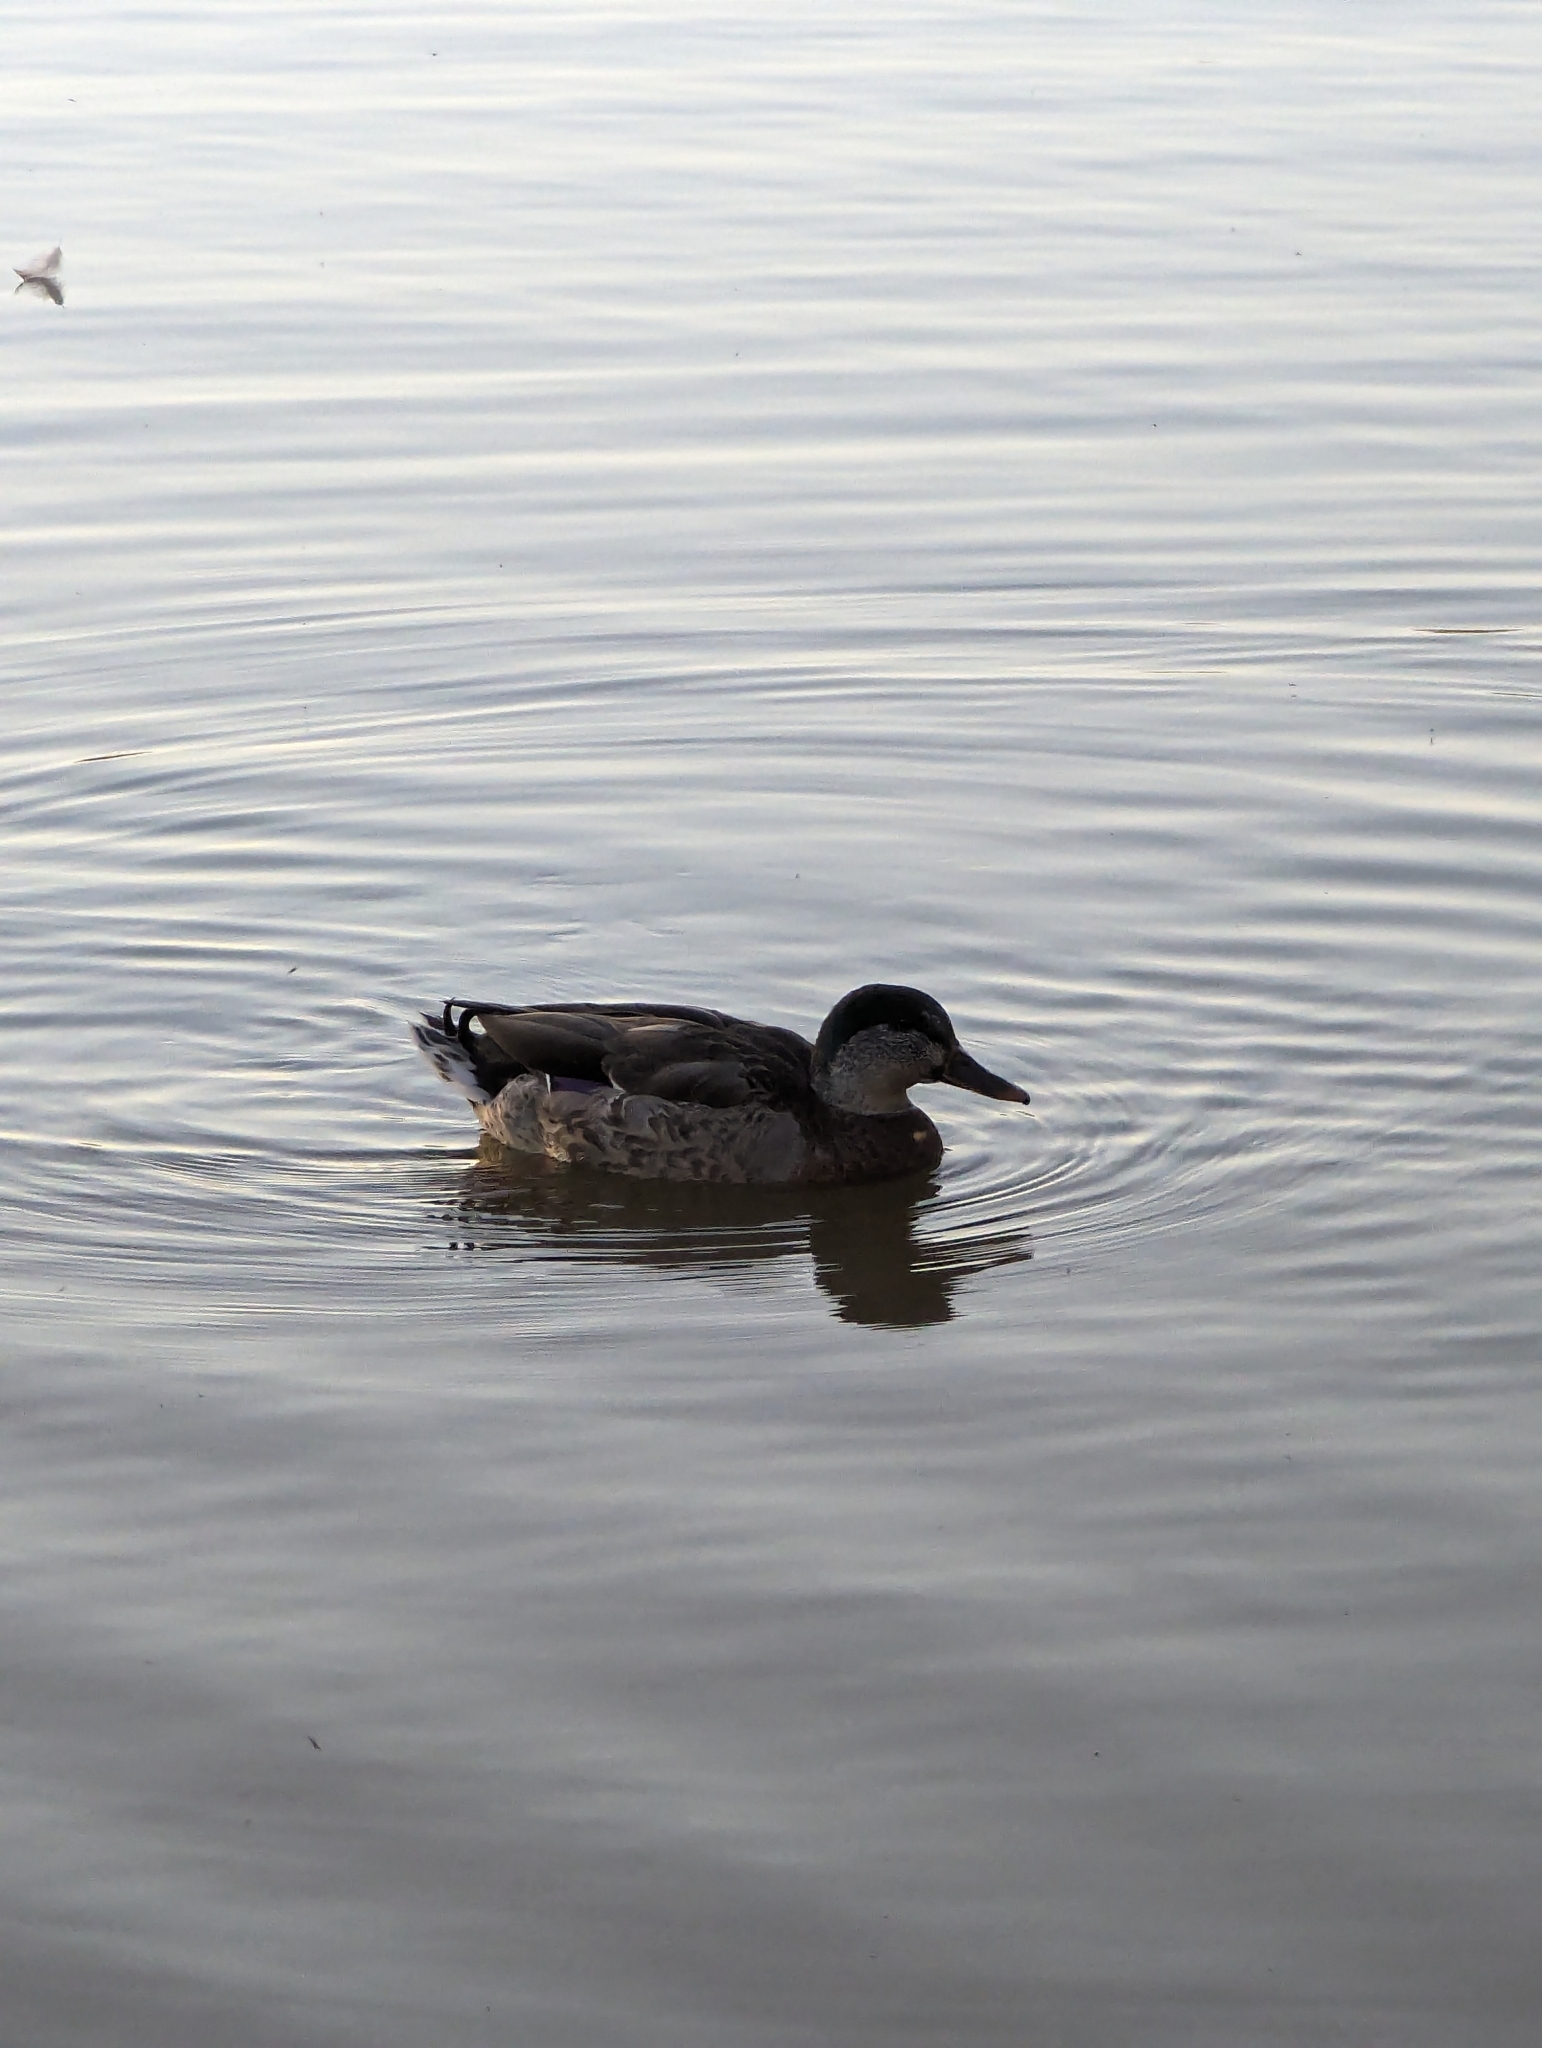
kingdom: Animalia
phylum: Chordata
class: Aves
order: Anseriformes
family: Anatidae
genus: Anas
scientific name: Anas platyrhynchos
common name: Mallard
